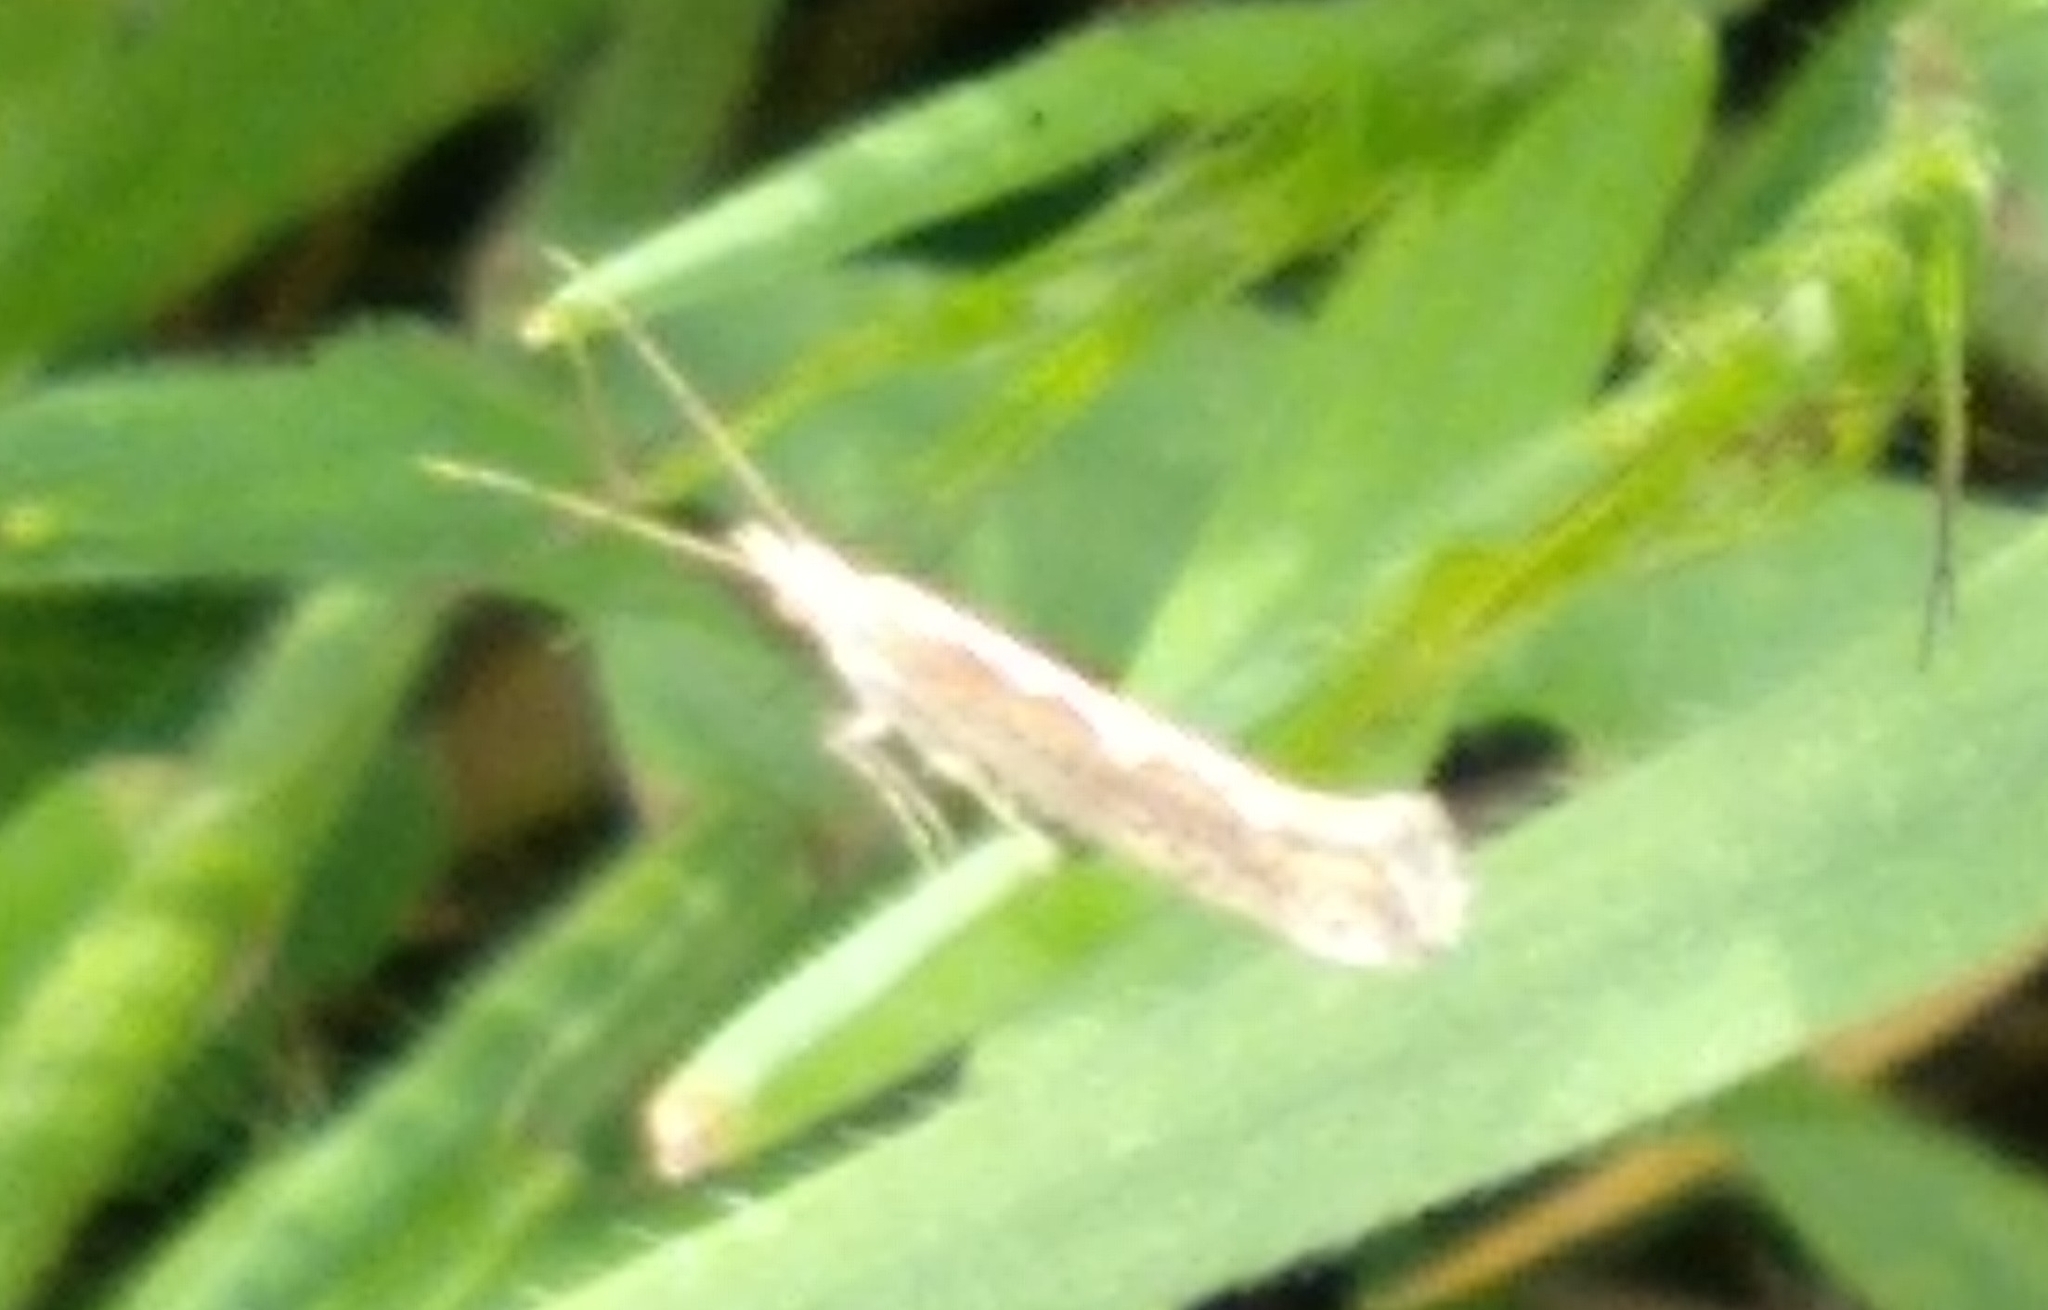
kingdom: Animalia
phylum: Arthropoda
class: Insecta
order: Lepidoptera
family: Plutellidae
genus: Plutella
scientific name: Plutella xylostella
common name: Diamond-back moth
